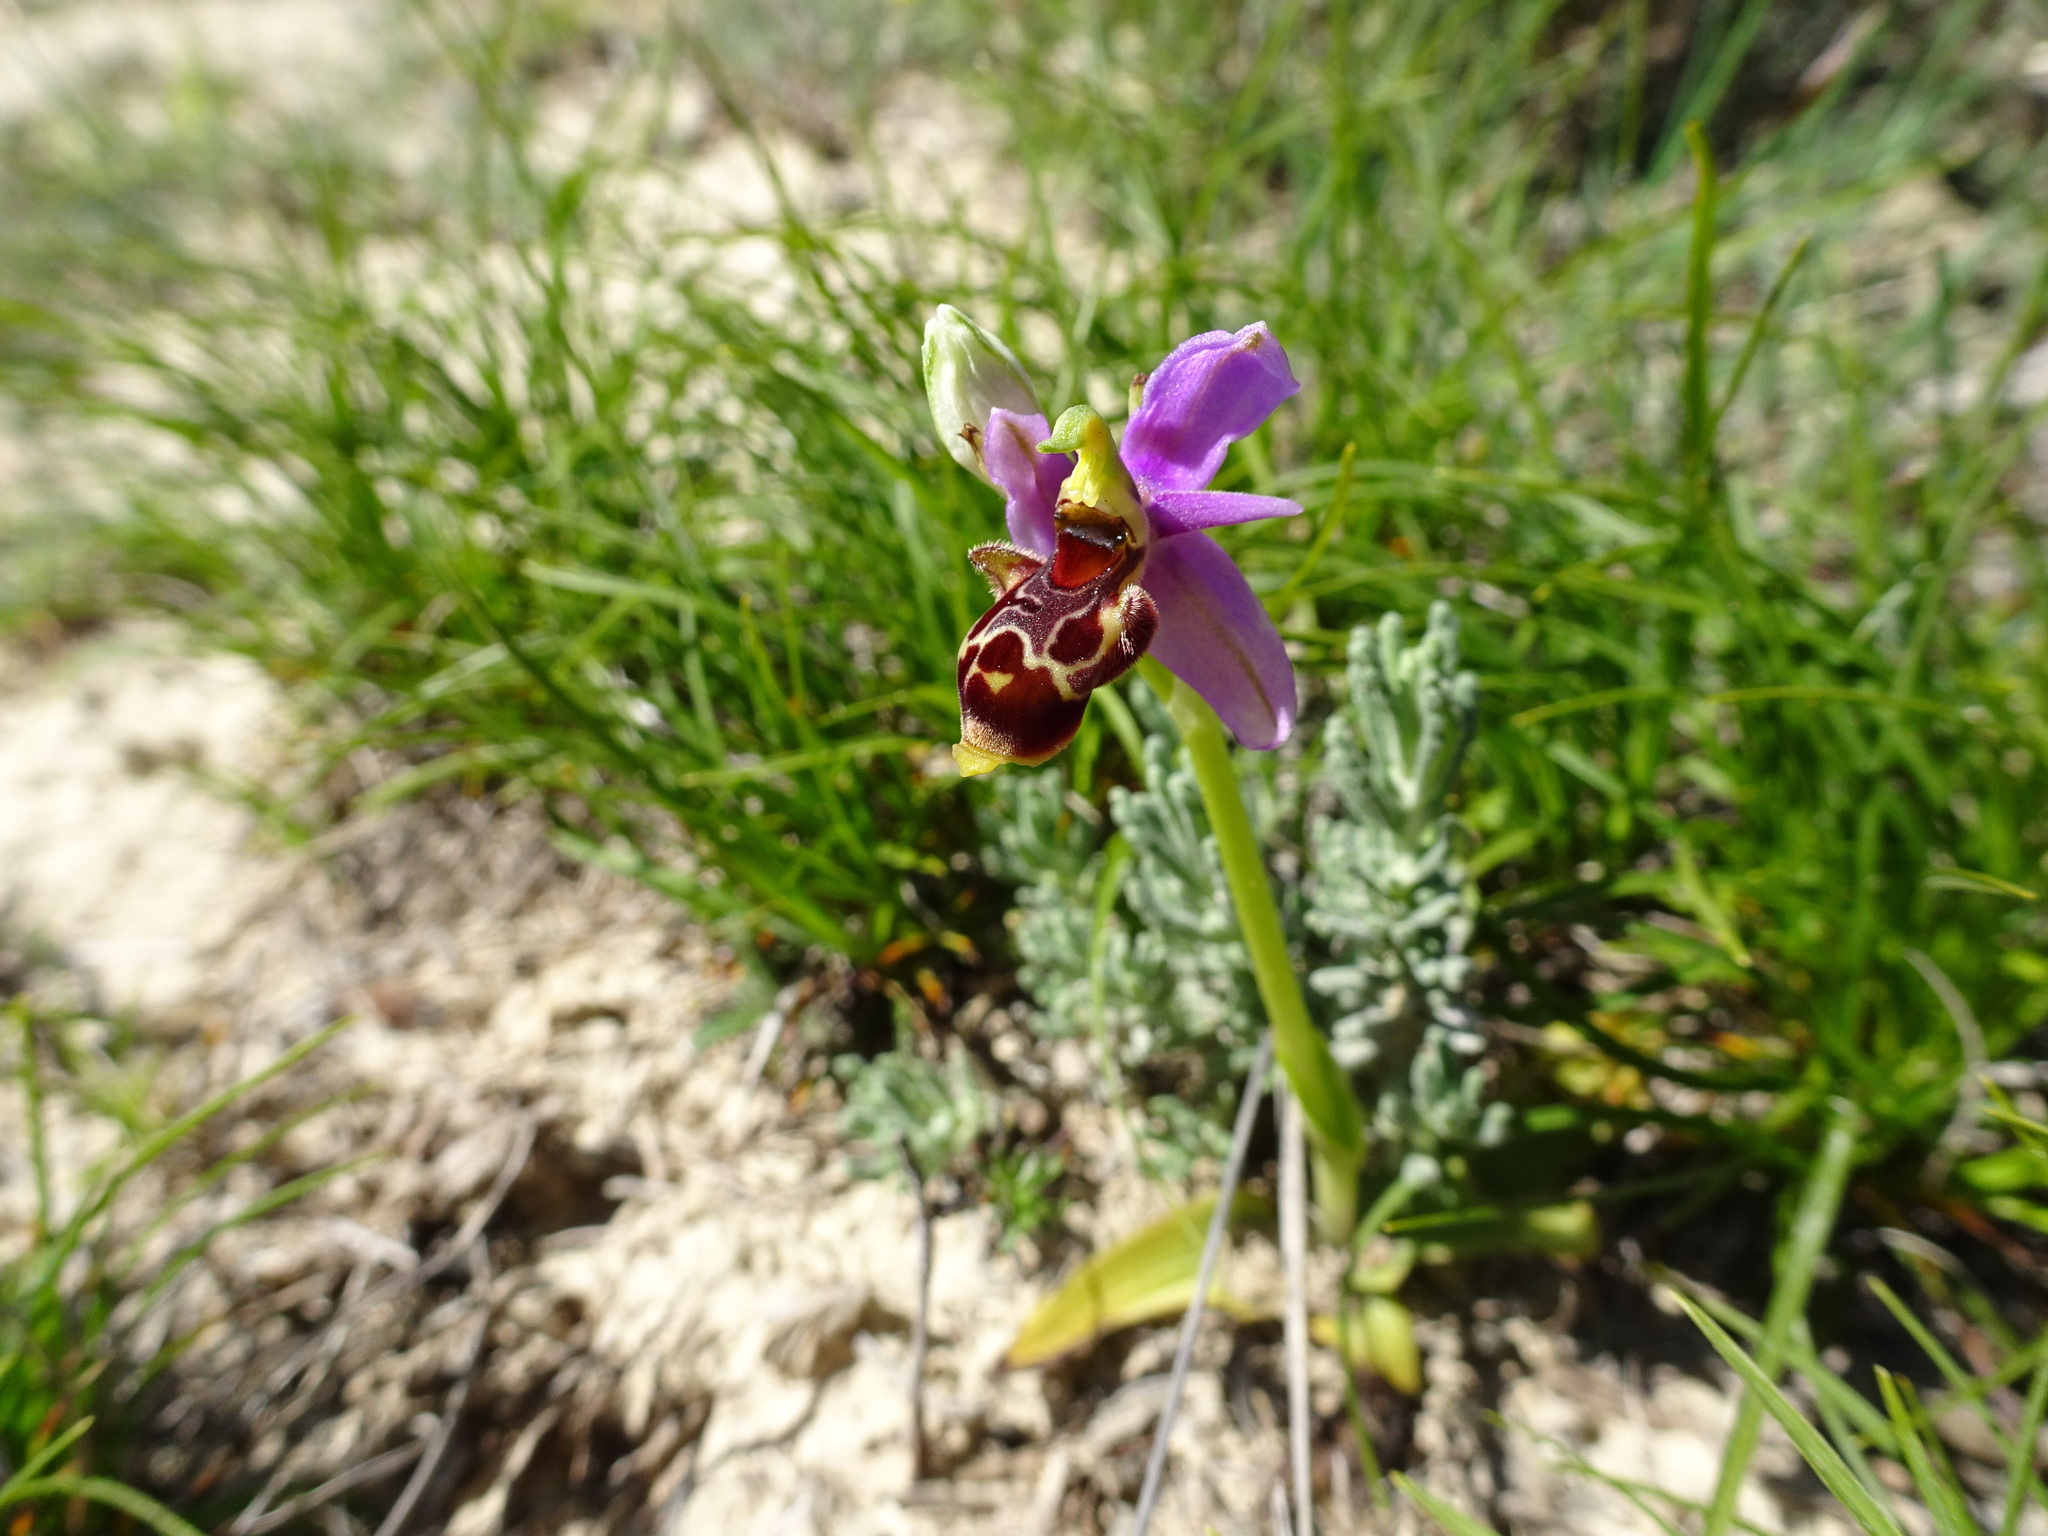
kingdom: Plantae
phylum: Tracheophyta
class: Liliopsida
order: Asparagales
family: Orchidaceae
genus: Ophrys
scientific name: Ophrys scolopax
